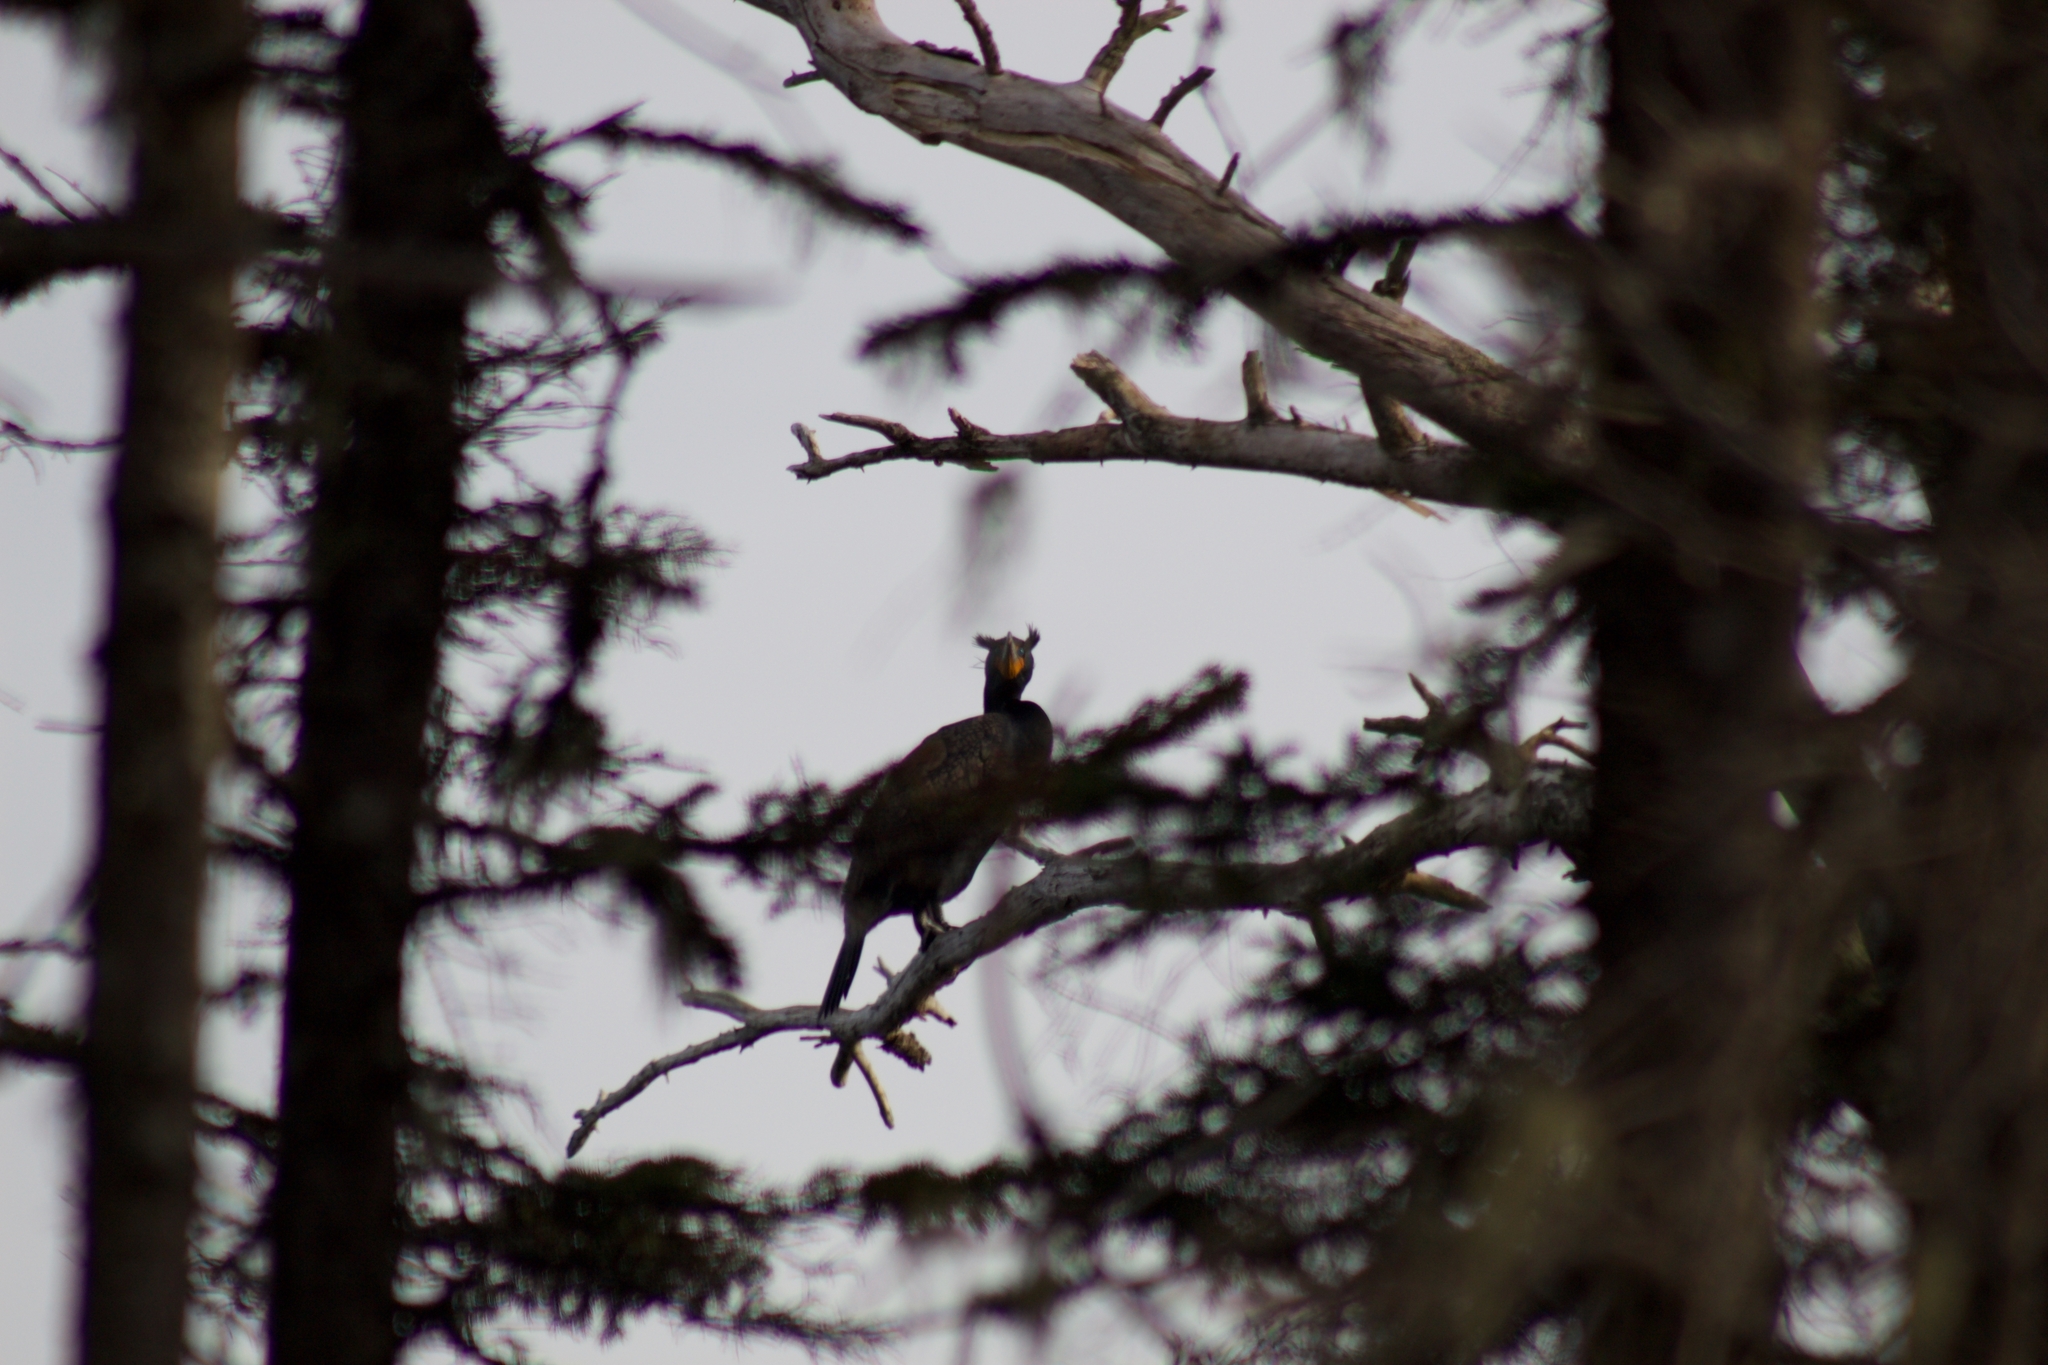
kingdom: Animalia
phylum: Chordata
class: Aves
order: Suliformes
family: Phalacrocoracidae
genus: Phalacrocorax
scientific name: Phalacrocorax auritus
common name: Double-crested cormorant
